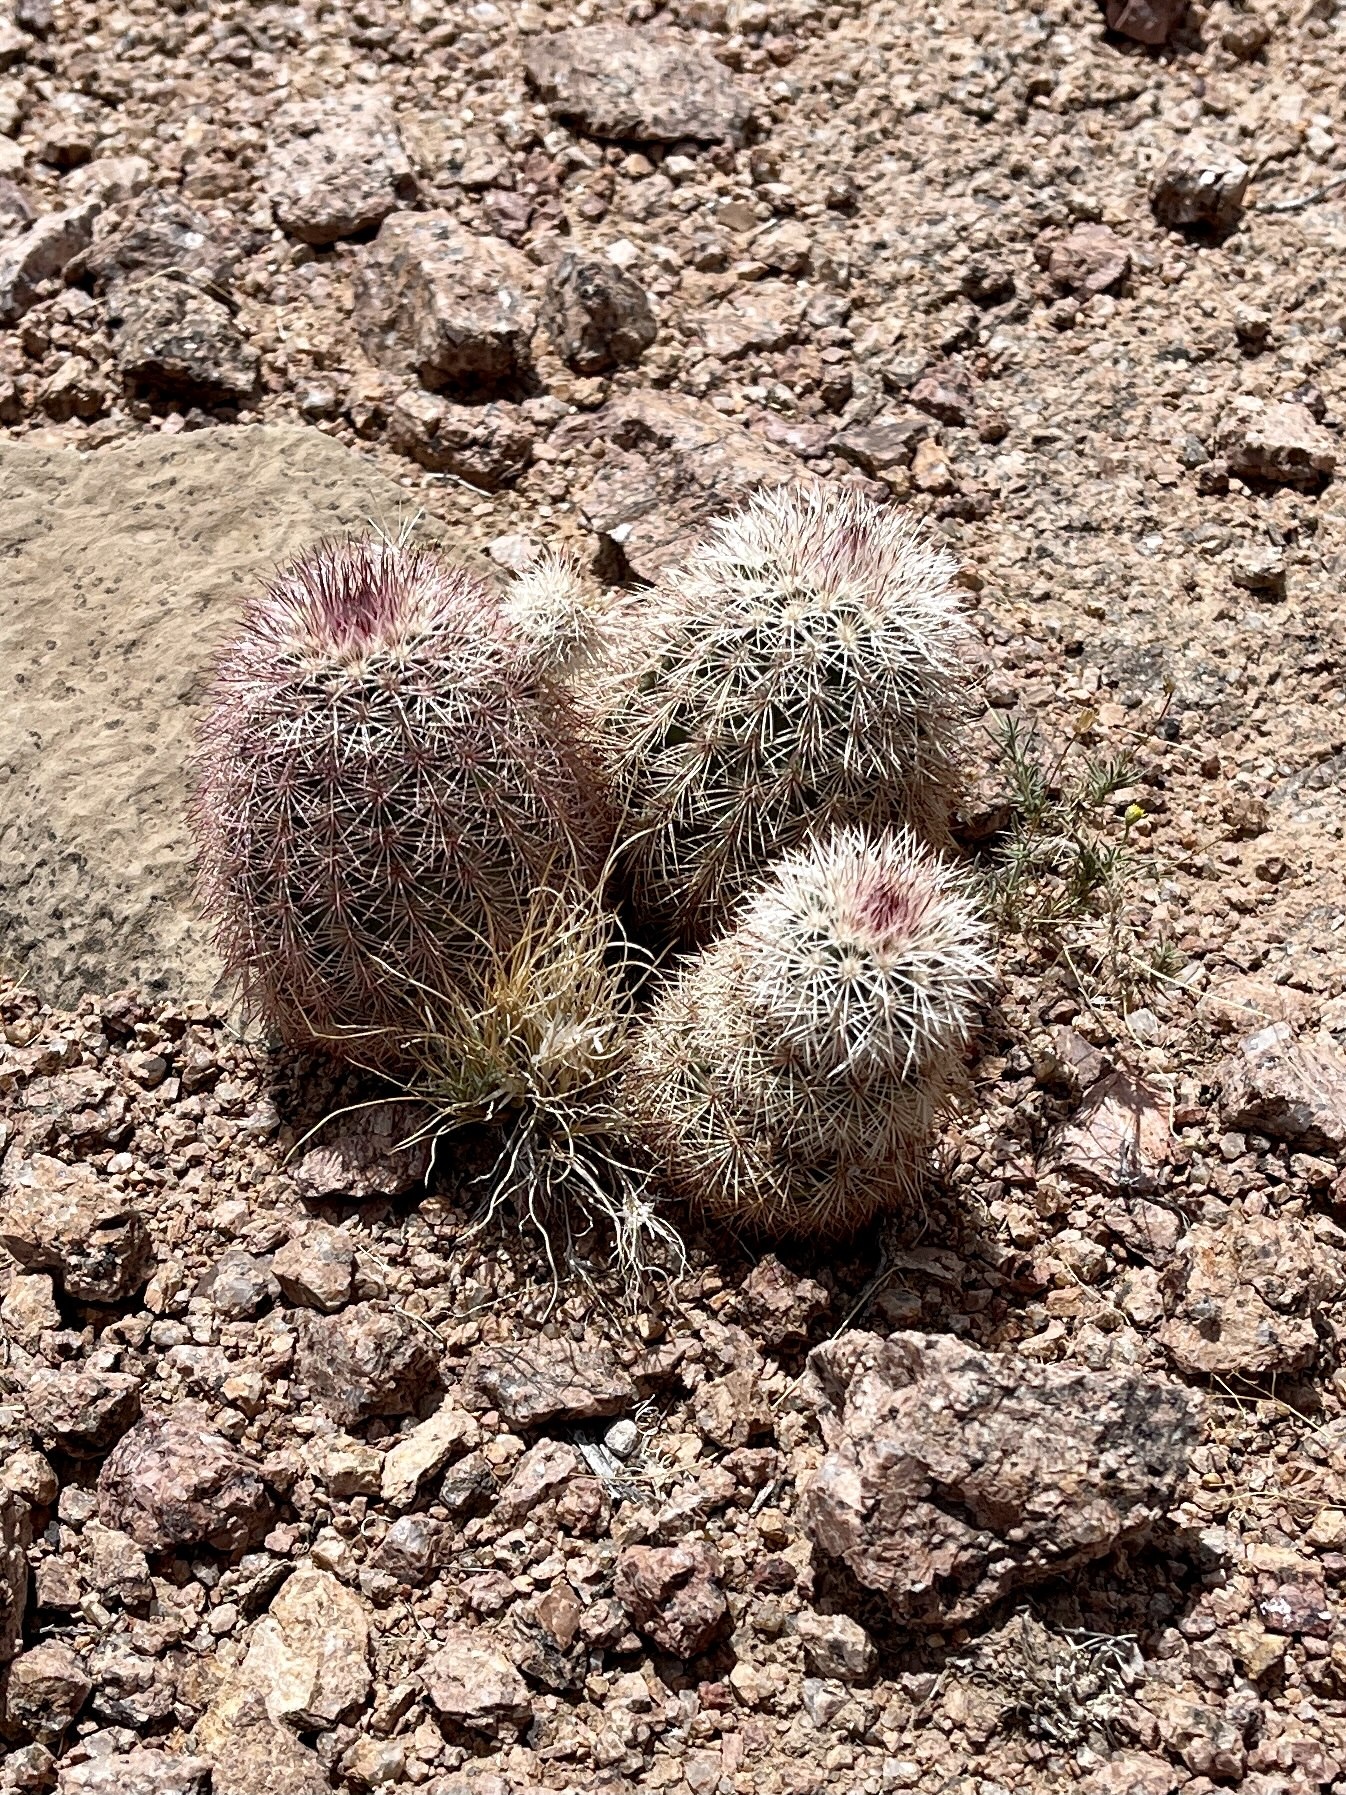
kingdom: Plantae
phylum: Tracheophyta
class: Magnoliopsida
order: Caryophyllales
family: Cactaceae
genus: Echinocereus
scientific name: Echinocereus dasyacanthus
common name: Spiny hedgehog cactus
